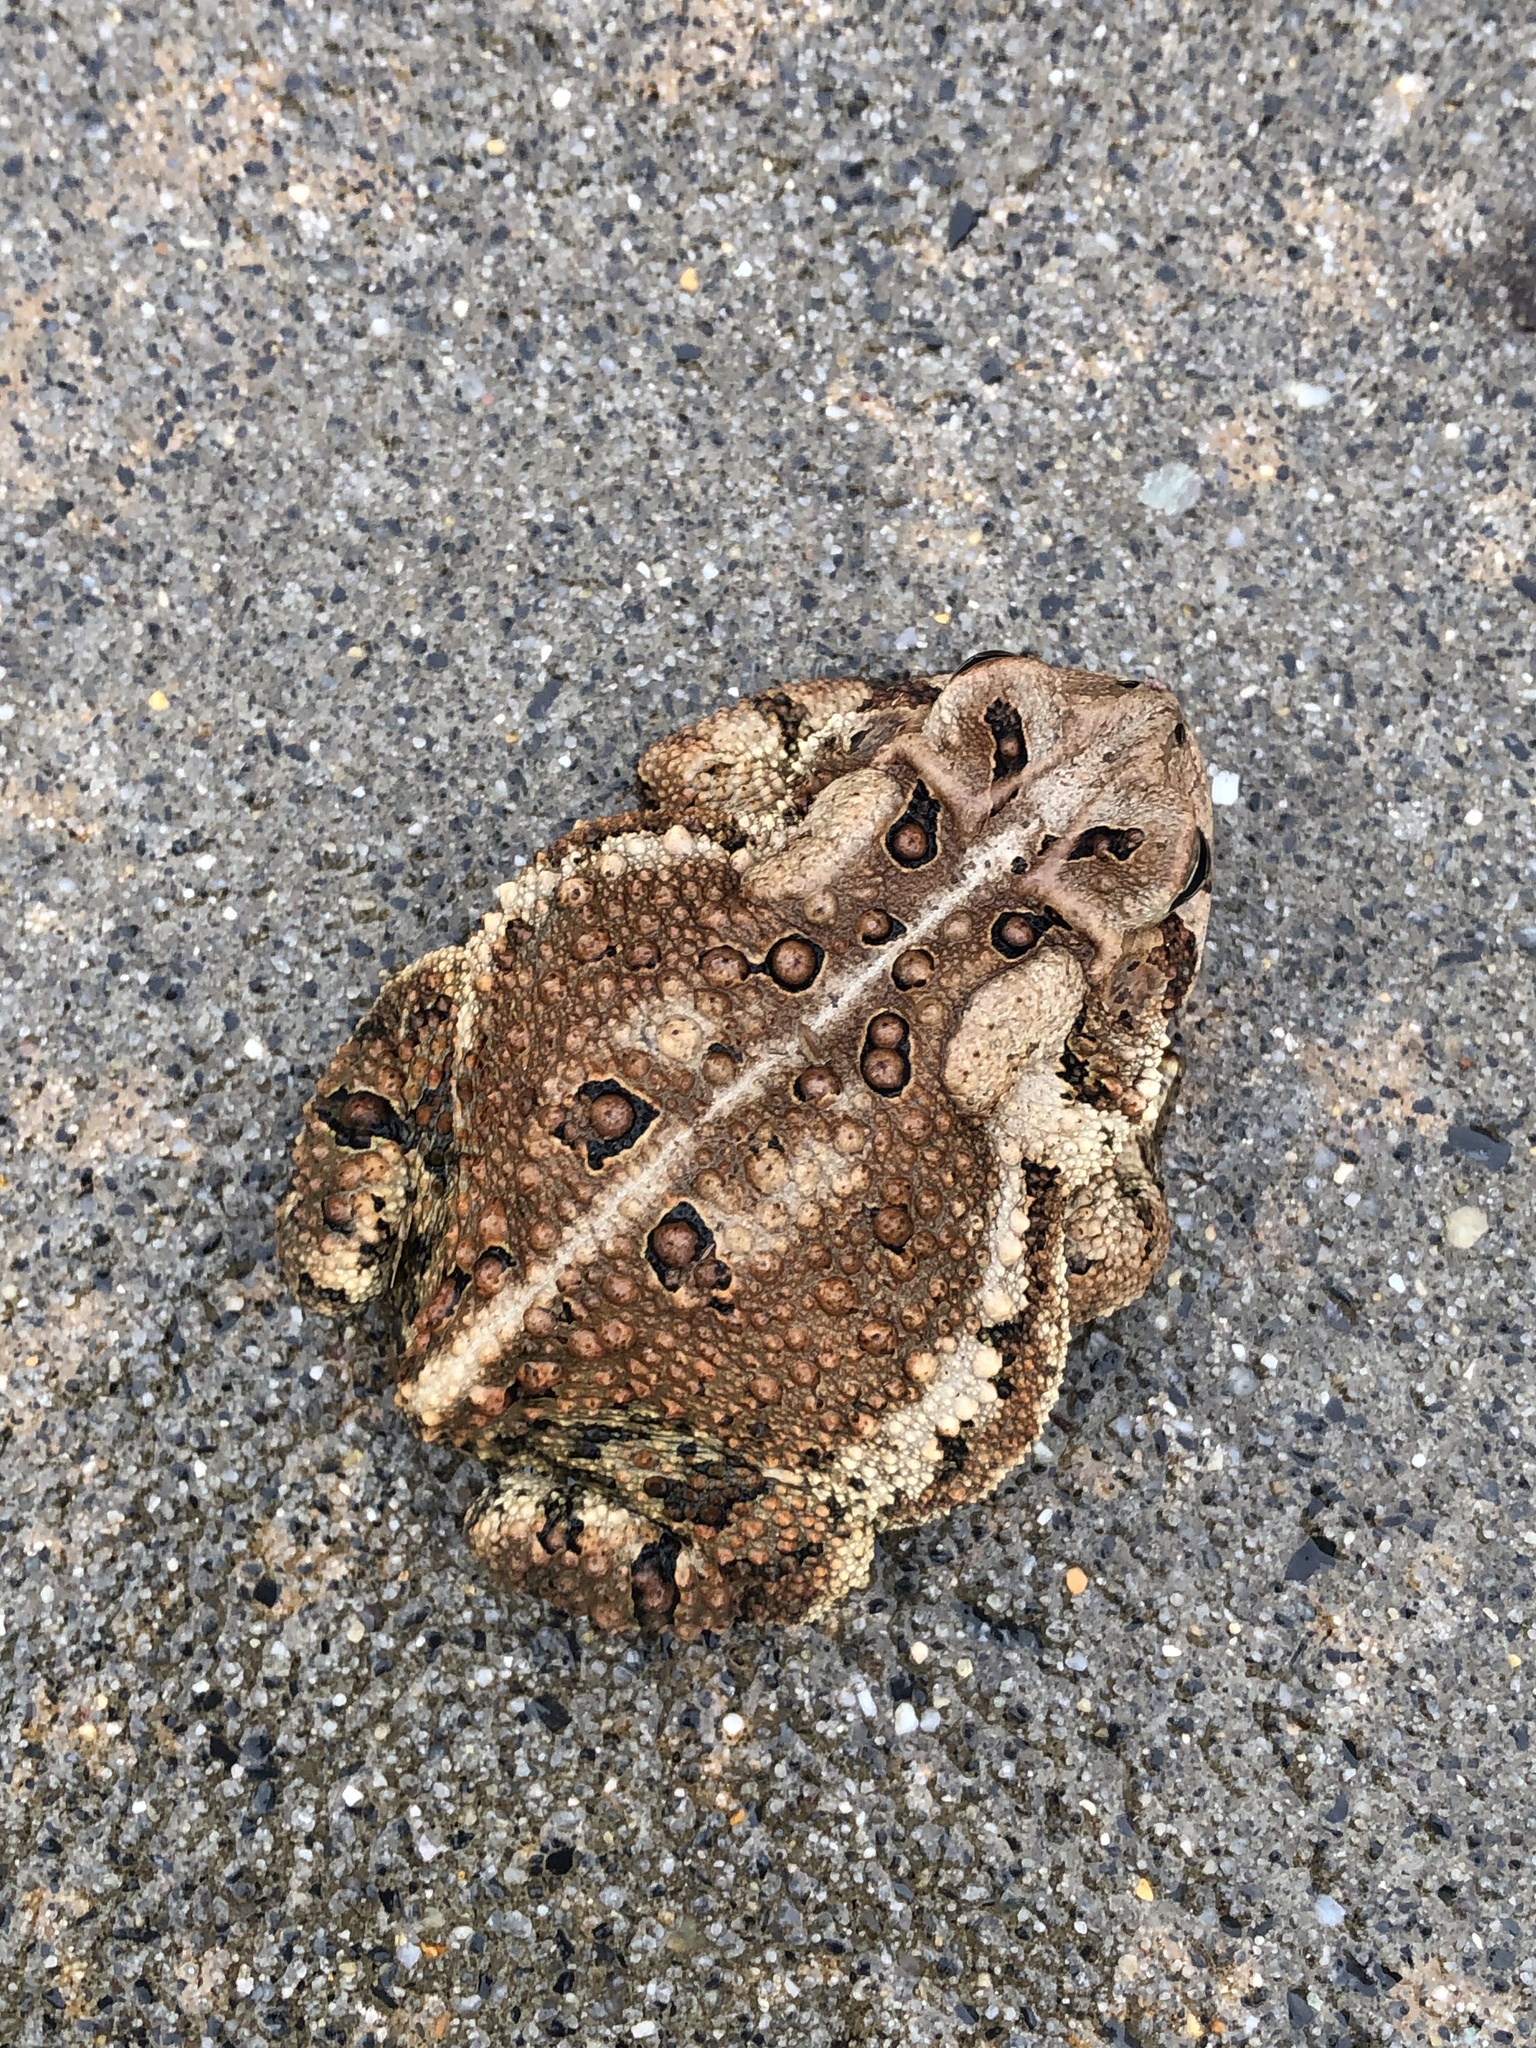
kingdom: Animalia
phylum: Chordata
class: Amphibia
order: Anura
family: Bufonidae
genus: Anaxyrus
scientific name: Anaxyrus americanus
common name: American toad
